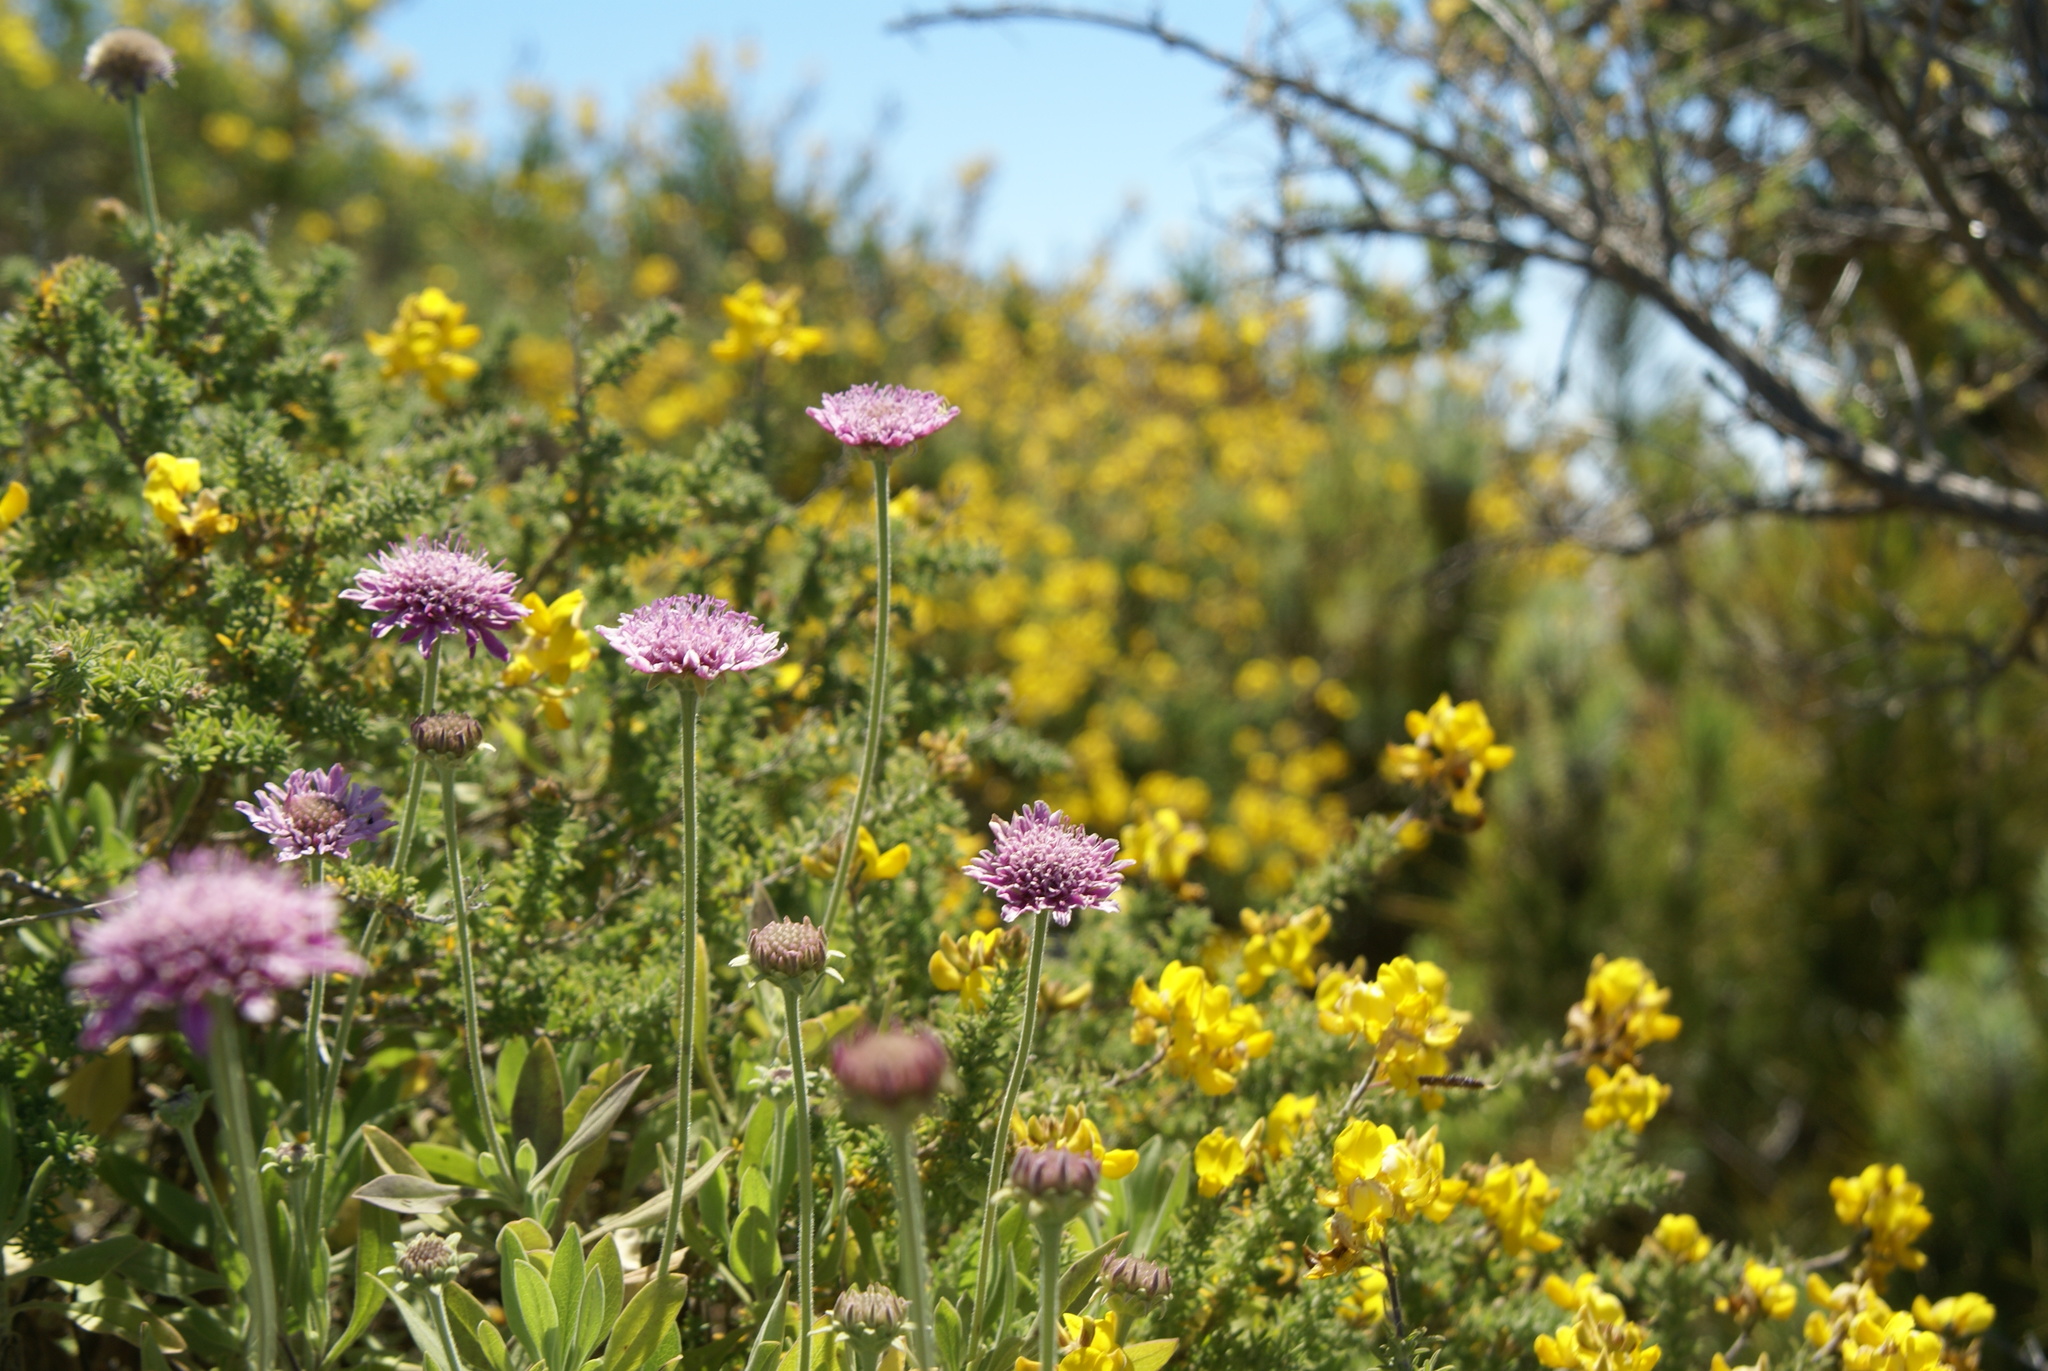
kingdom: Plantae
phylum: Tracheophyta
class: Magnoliopsida
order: Dipsacales
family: Caprifoliaceae
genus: Pterocephalus
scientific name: Pterocephalus porphyranthus
